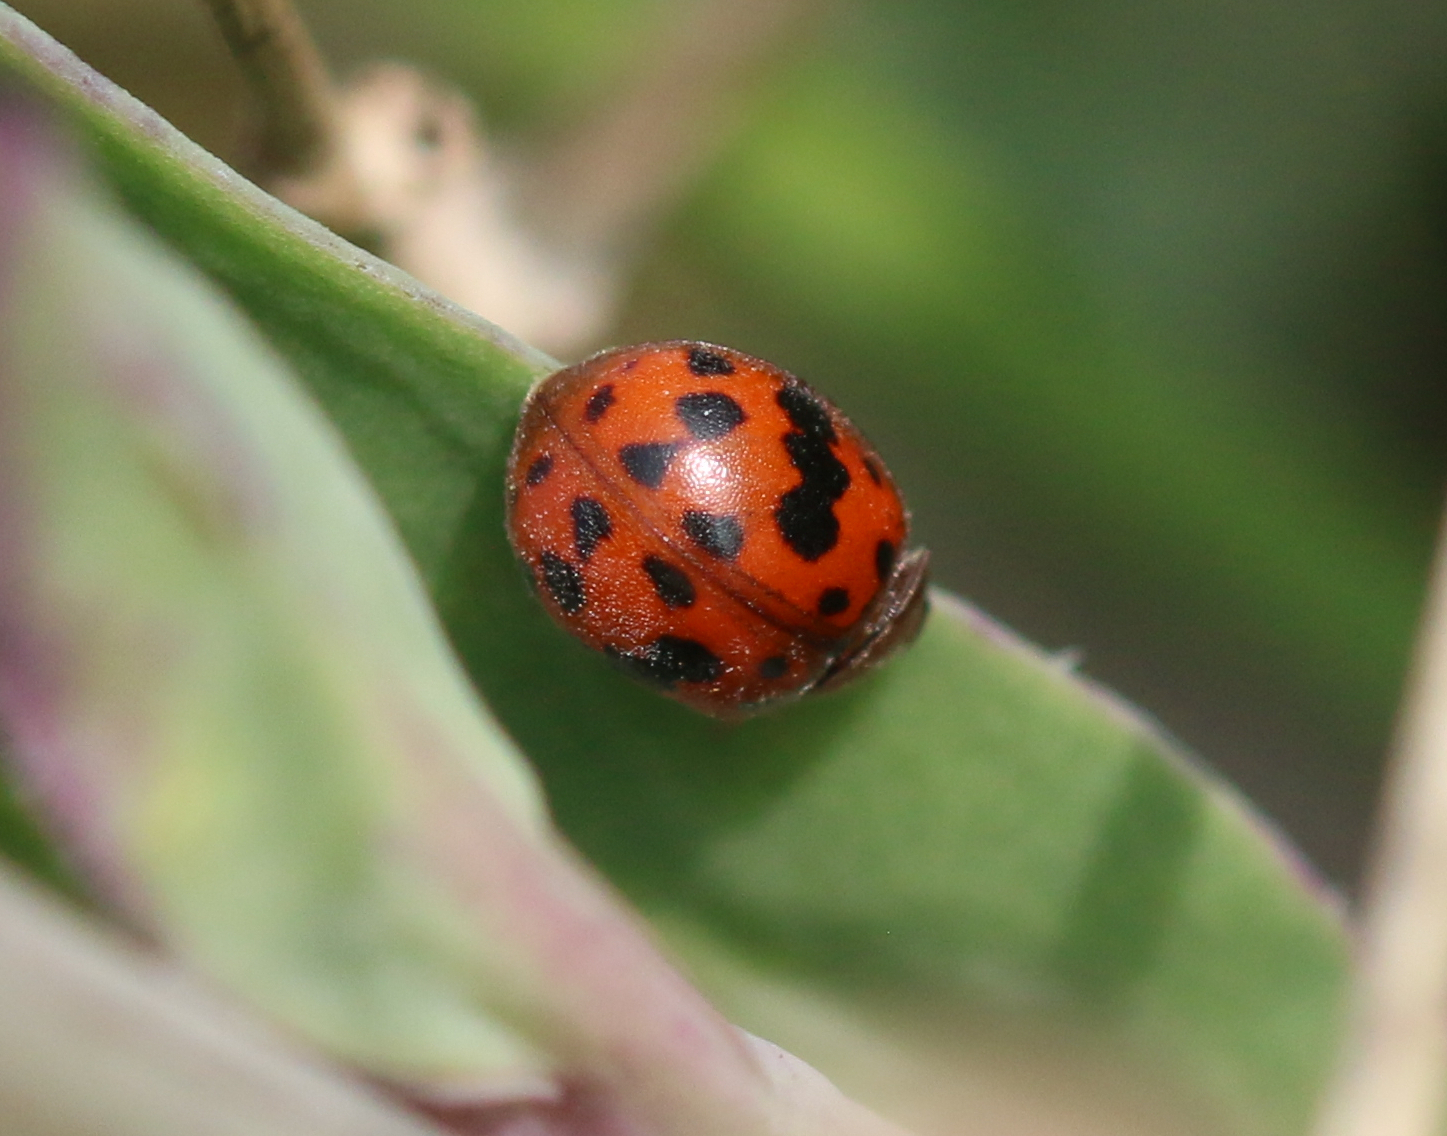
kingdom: Animalia
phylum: Arthropoda
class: Insecta
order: Coleoptera
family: Coccinellidae
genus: Subcoccinella
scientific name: Subcoccinella vigintiquatuorpunctata
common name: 24-spot ladybird
